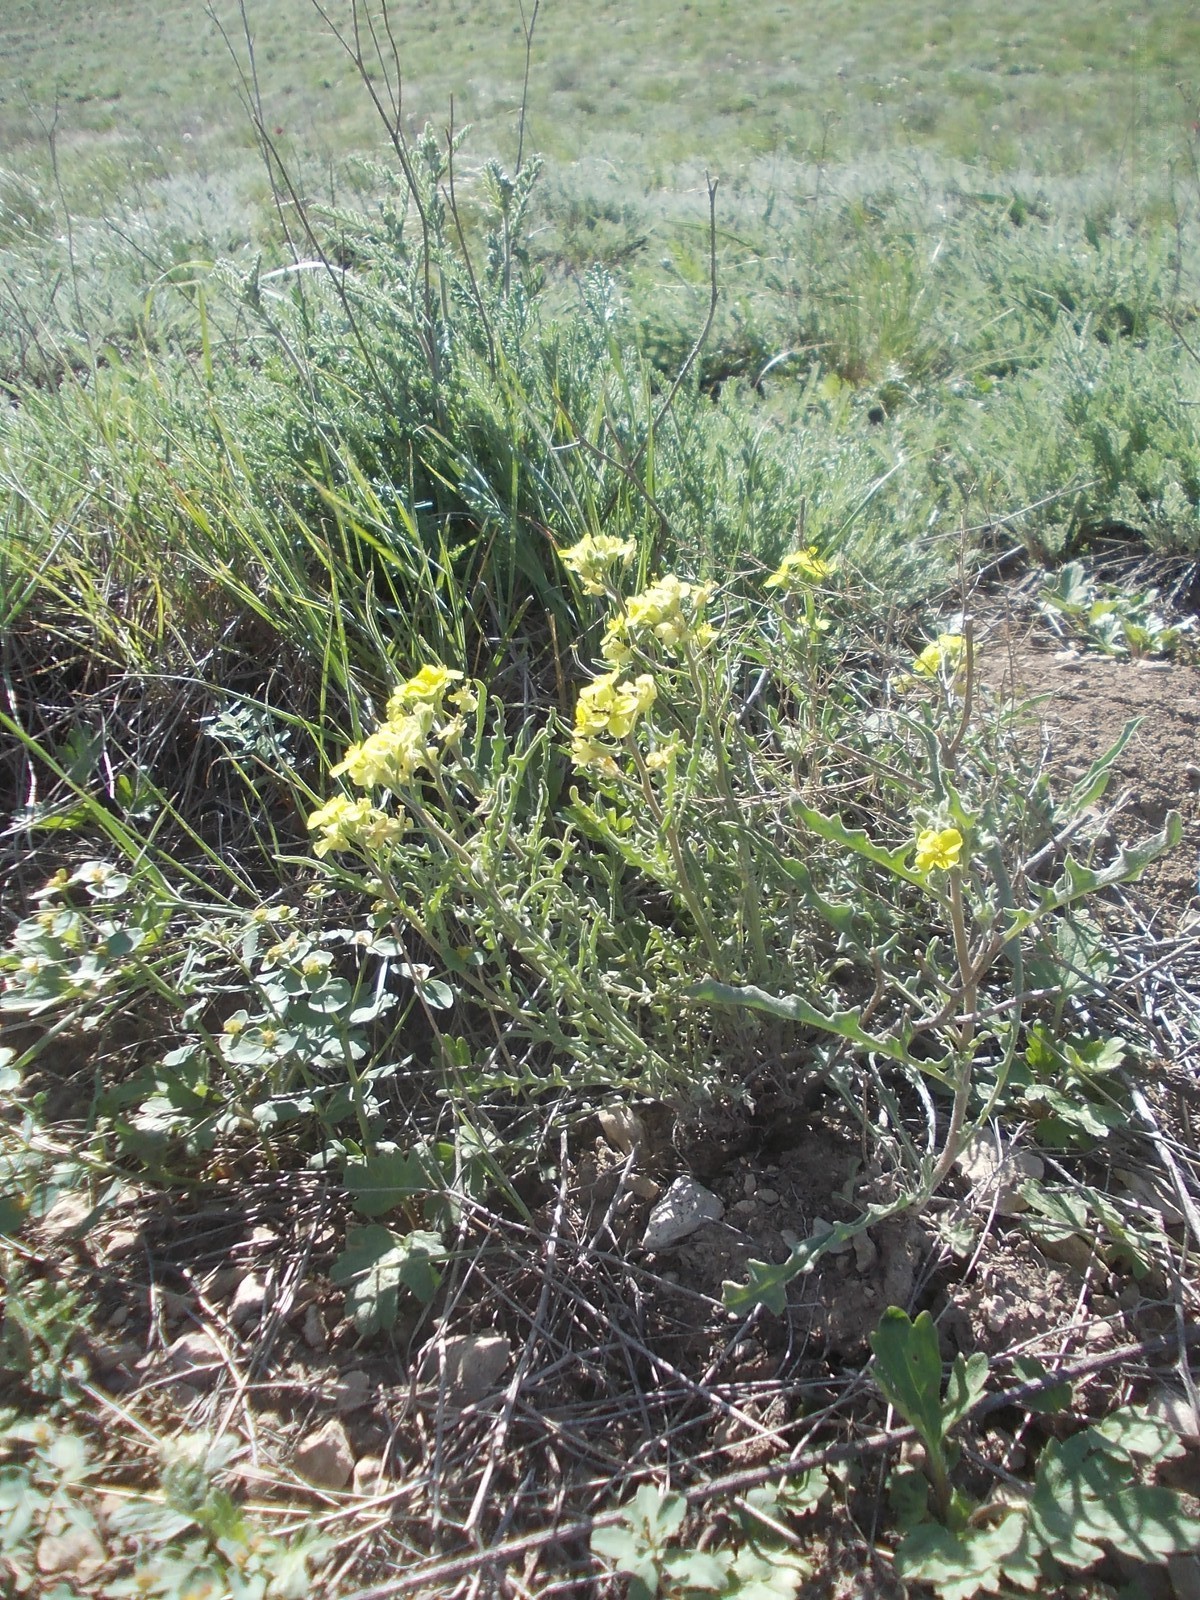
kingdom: Plantae
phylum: Tracheophyta
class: Magnoliopsida
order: Brassicales
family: Brassicaceae
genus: Sterigmostemum
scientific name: Sterigmostemum caspicum
